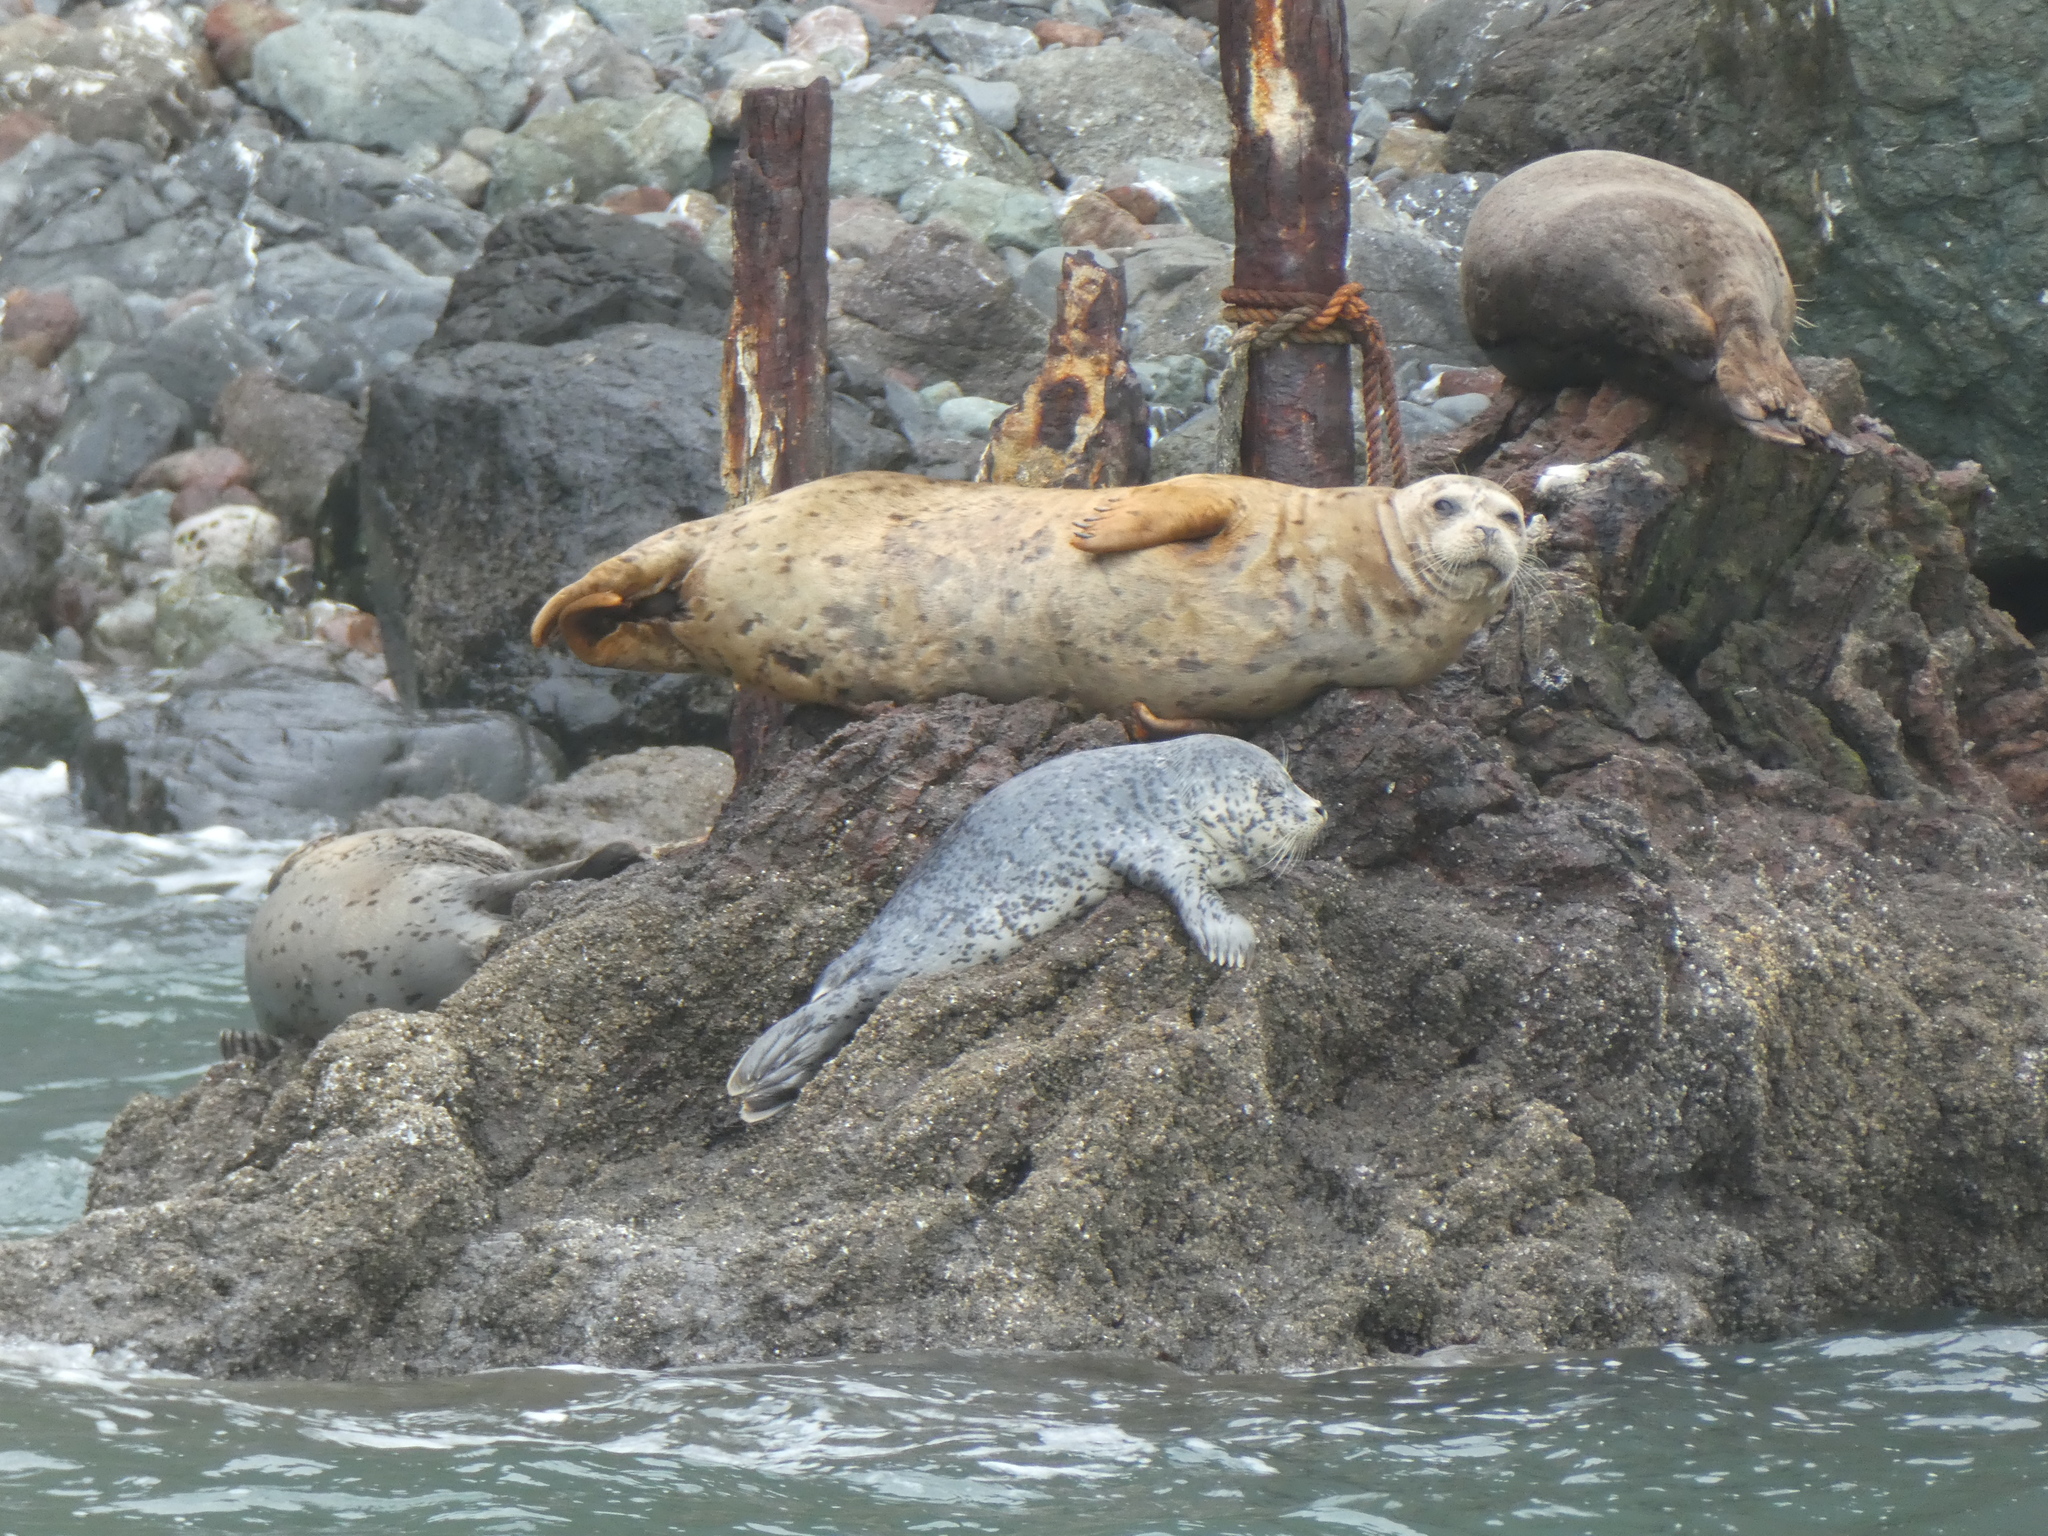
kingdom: Animalia
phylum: Chordata
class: Mammalia
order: Carnivora
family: Phocidae
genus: Phoca
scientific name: Phoca vitulina
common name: Harbor seal
